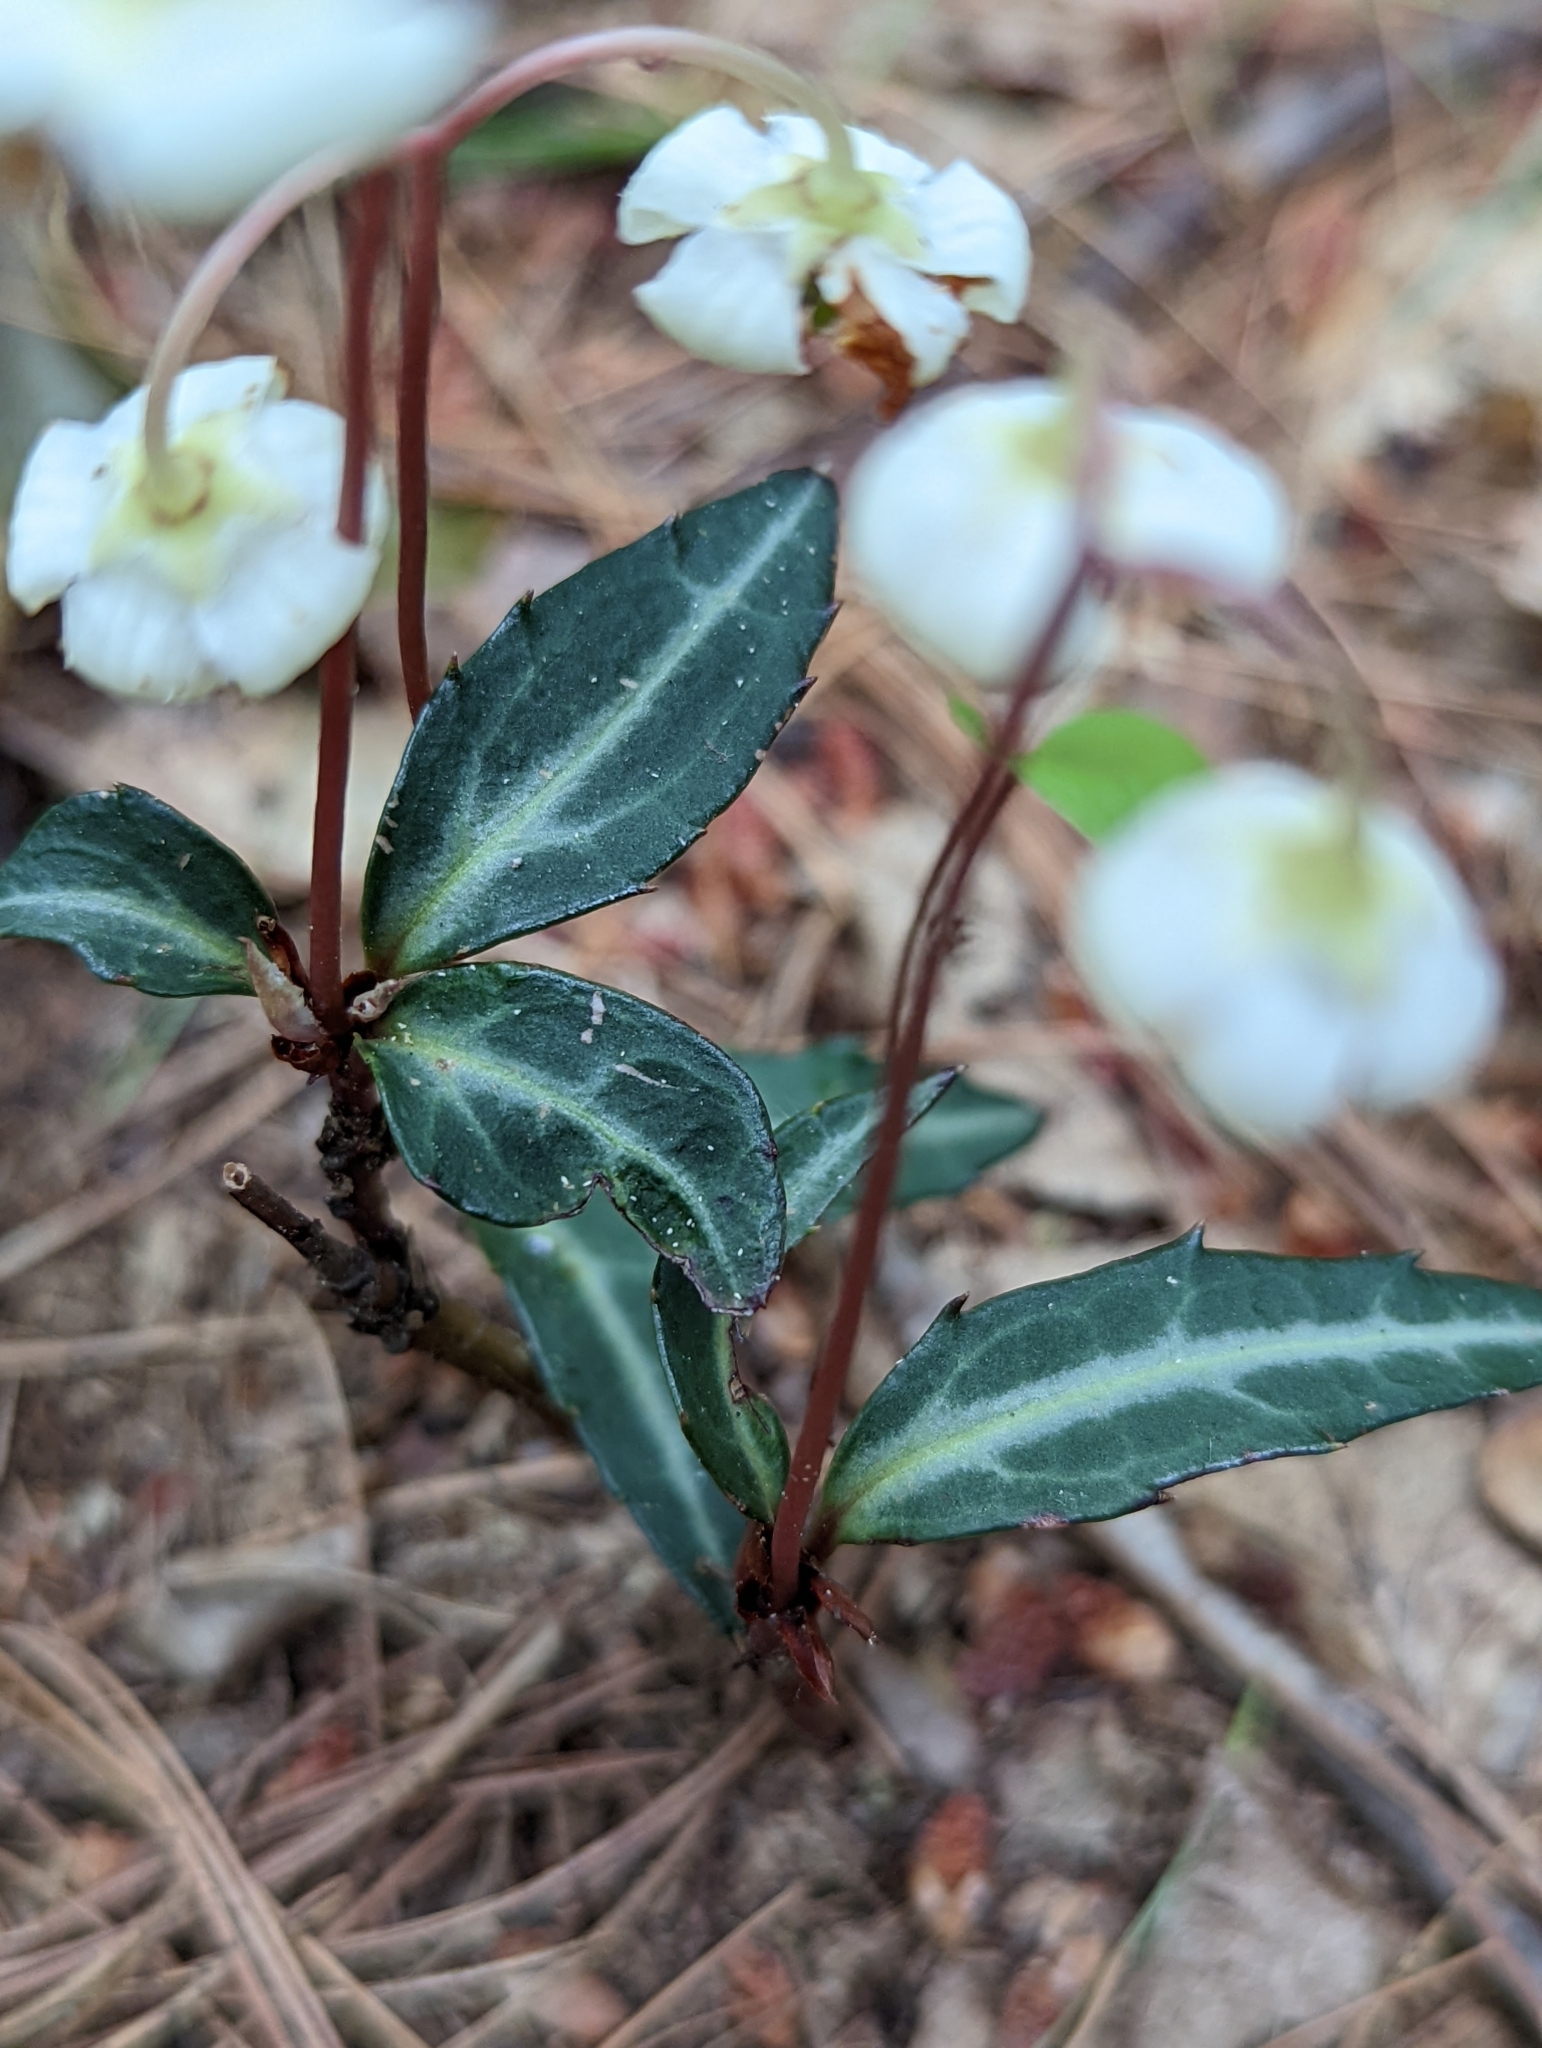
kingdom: Plantae
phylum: Tracheophyta
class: Magnoliopsida
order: Ericales
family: Ericaceae
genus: Chimaphila
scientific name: Chimaphila maculata
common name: Spotted pipsissewa
